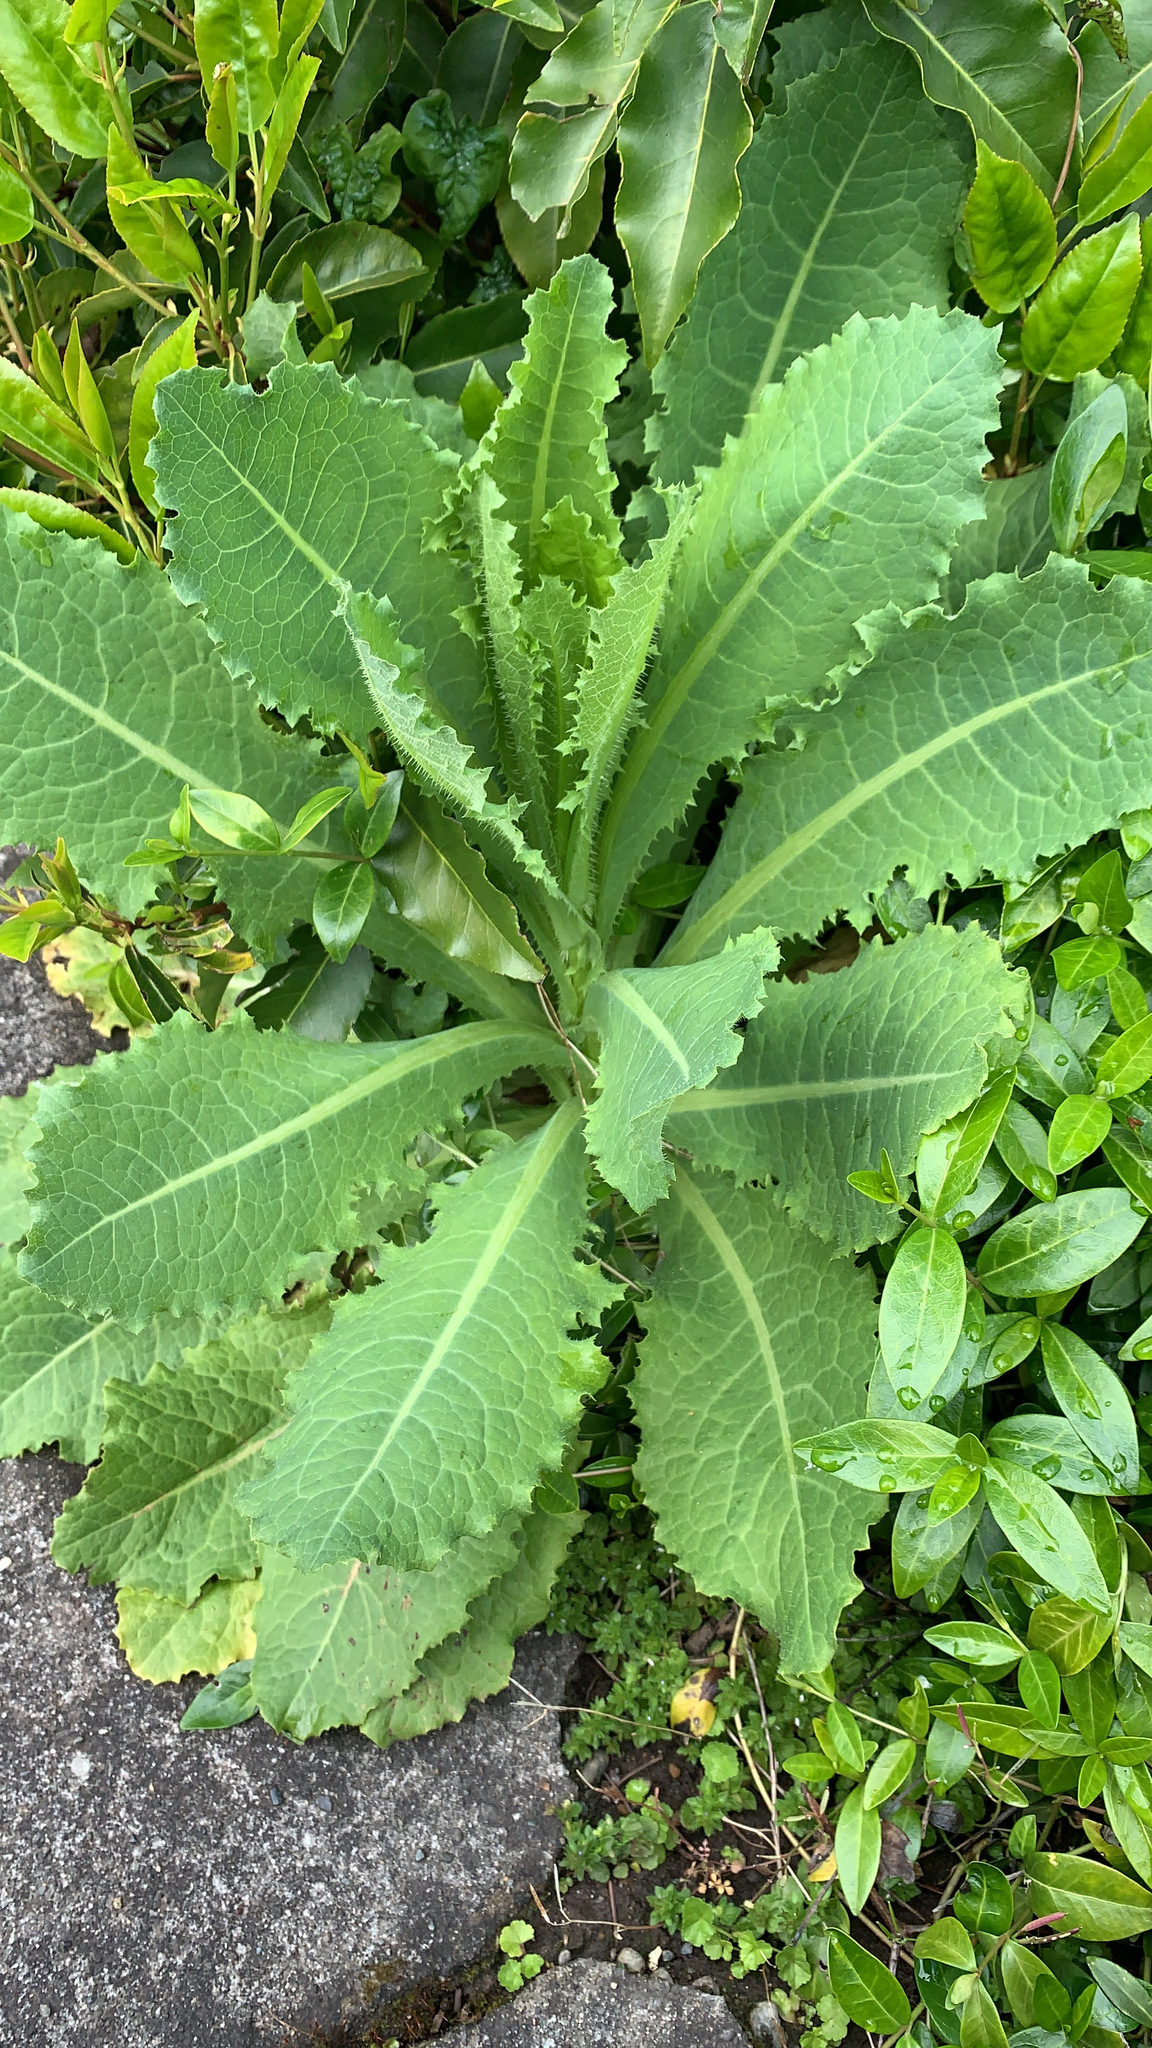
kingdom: Plantae
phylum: Tracheophyta
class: Magnoliopsida
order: Asterales
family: Asteraceae
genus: Lactuca
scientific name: Lactuca virosa
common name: Great lettuce
